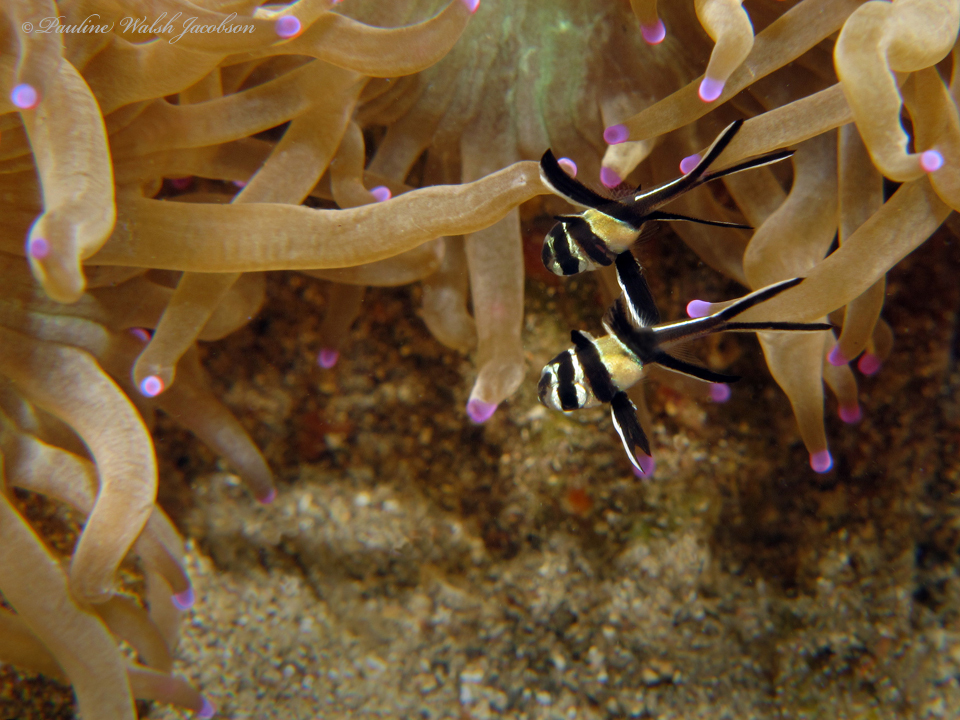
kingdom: Animalia
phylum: Chordata
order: Perciformes
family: Apogonidae
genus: Pterapogon
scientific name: Pterapogon kauderni
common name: Banggai cardinalfish
